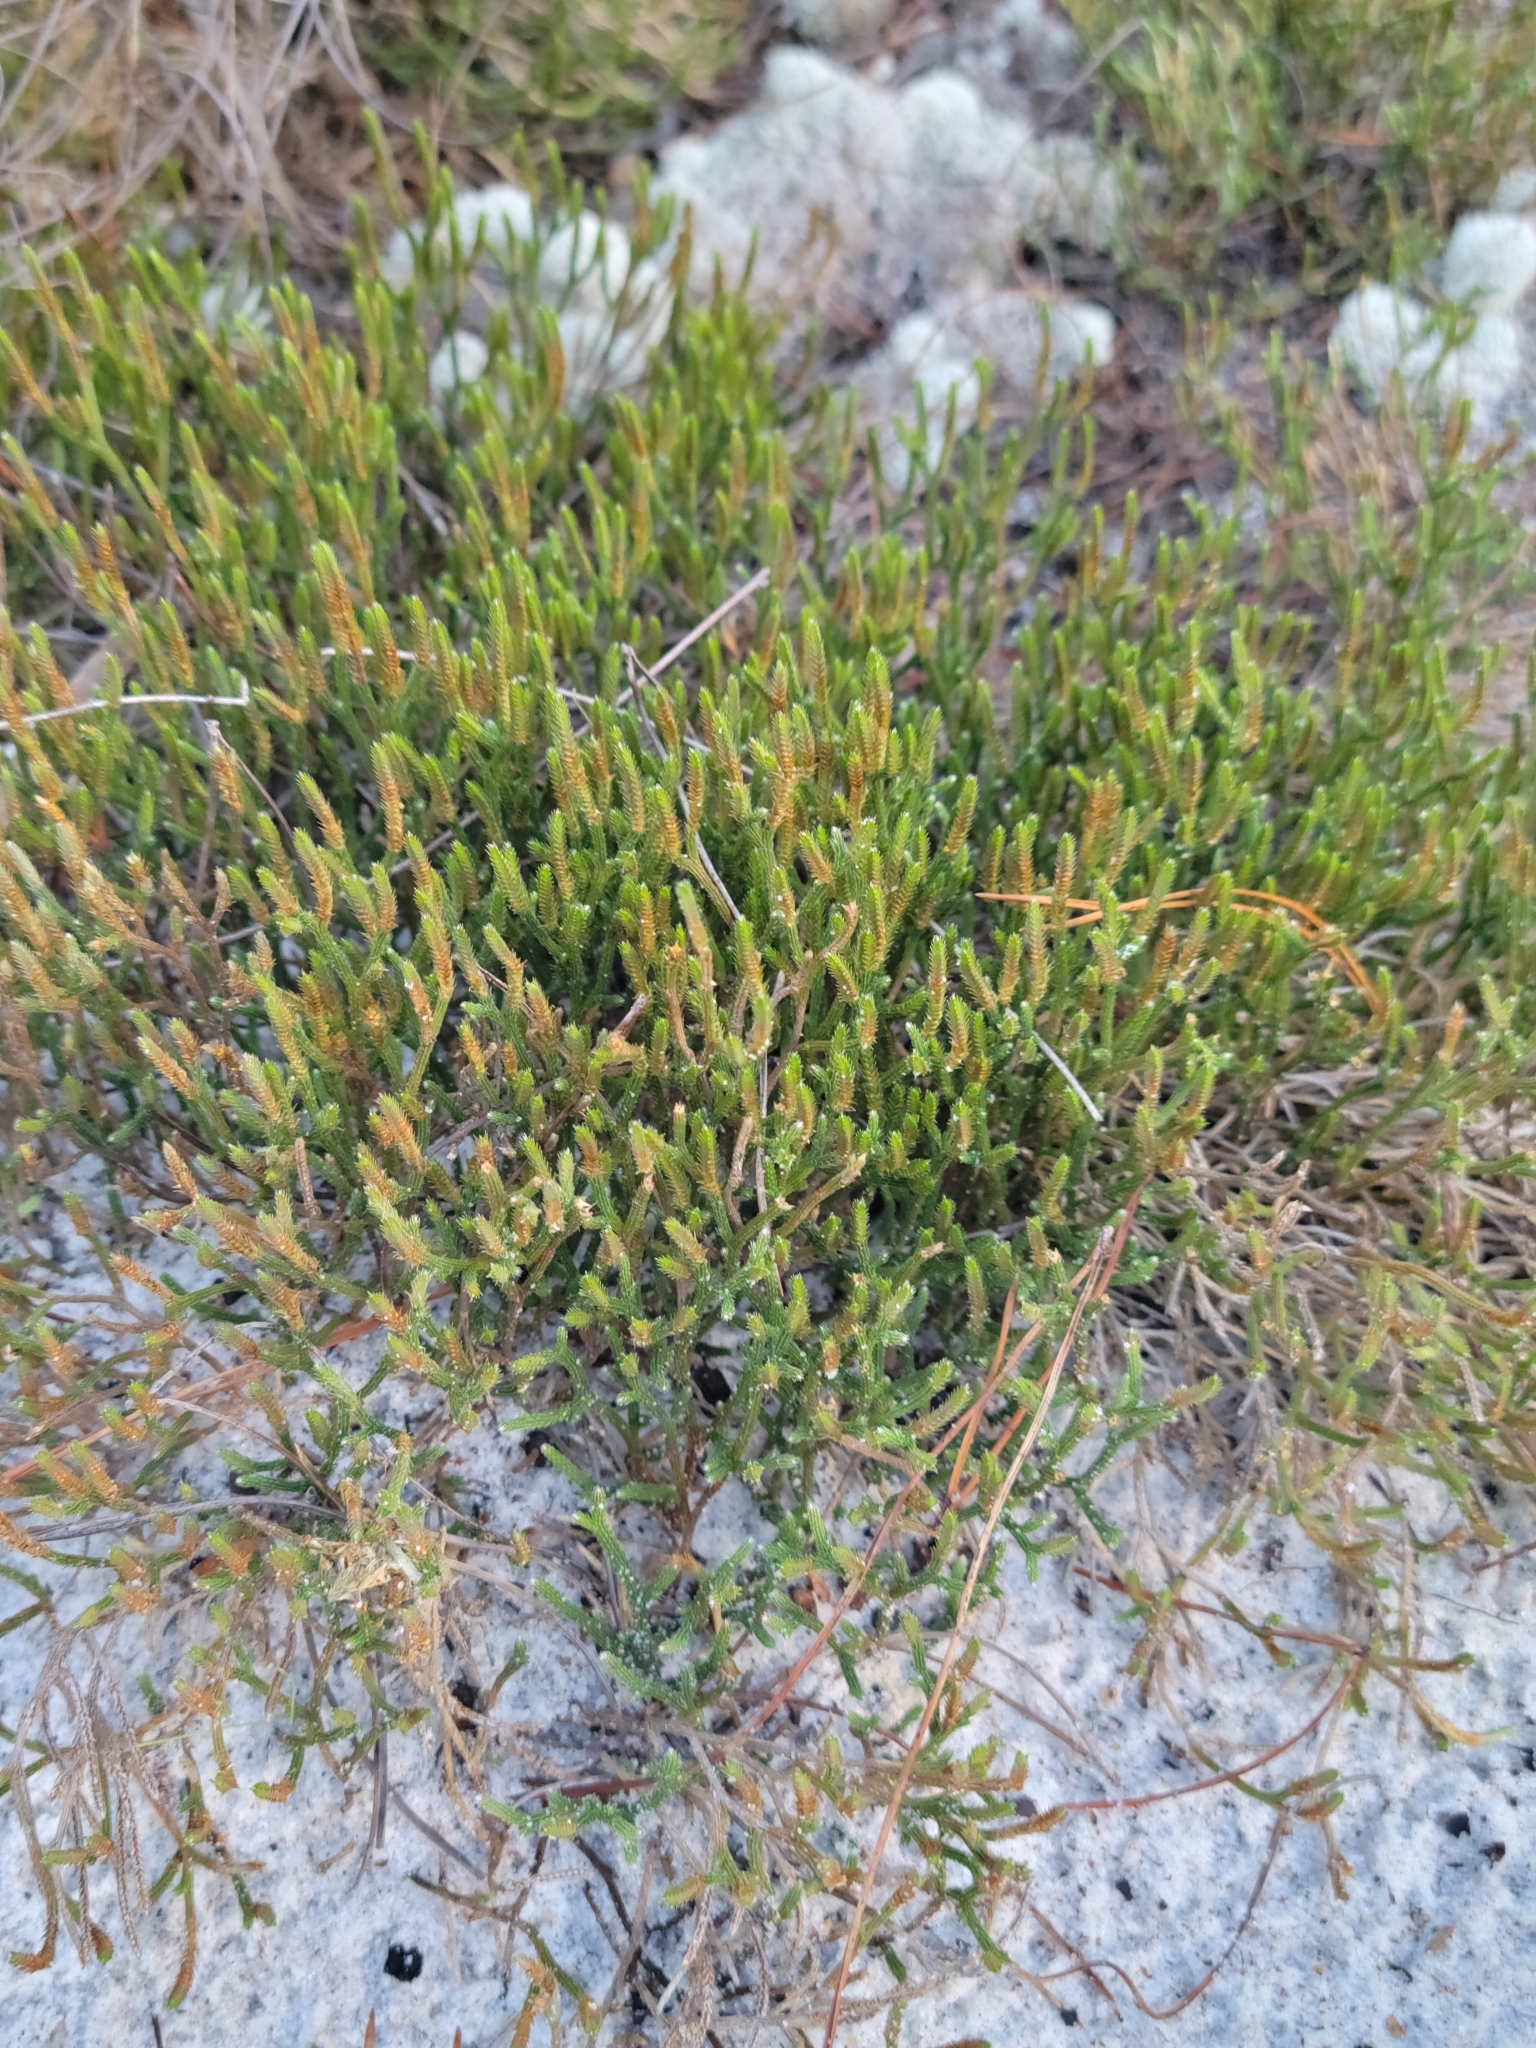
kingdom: Plantae
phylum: Tracheophyta
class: Lycopodiopsida
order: Selaginellales
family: Selaginellaceae
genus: Selaginella
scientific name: Selaginella arenicola
